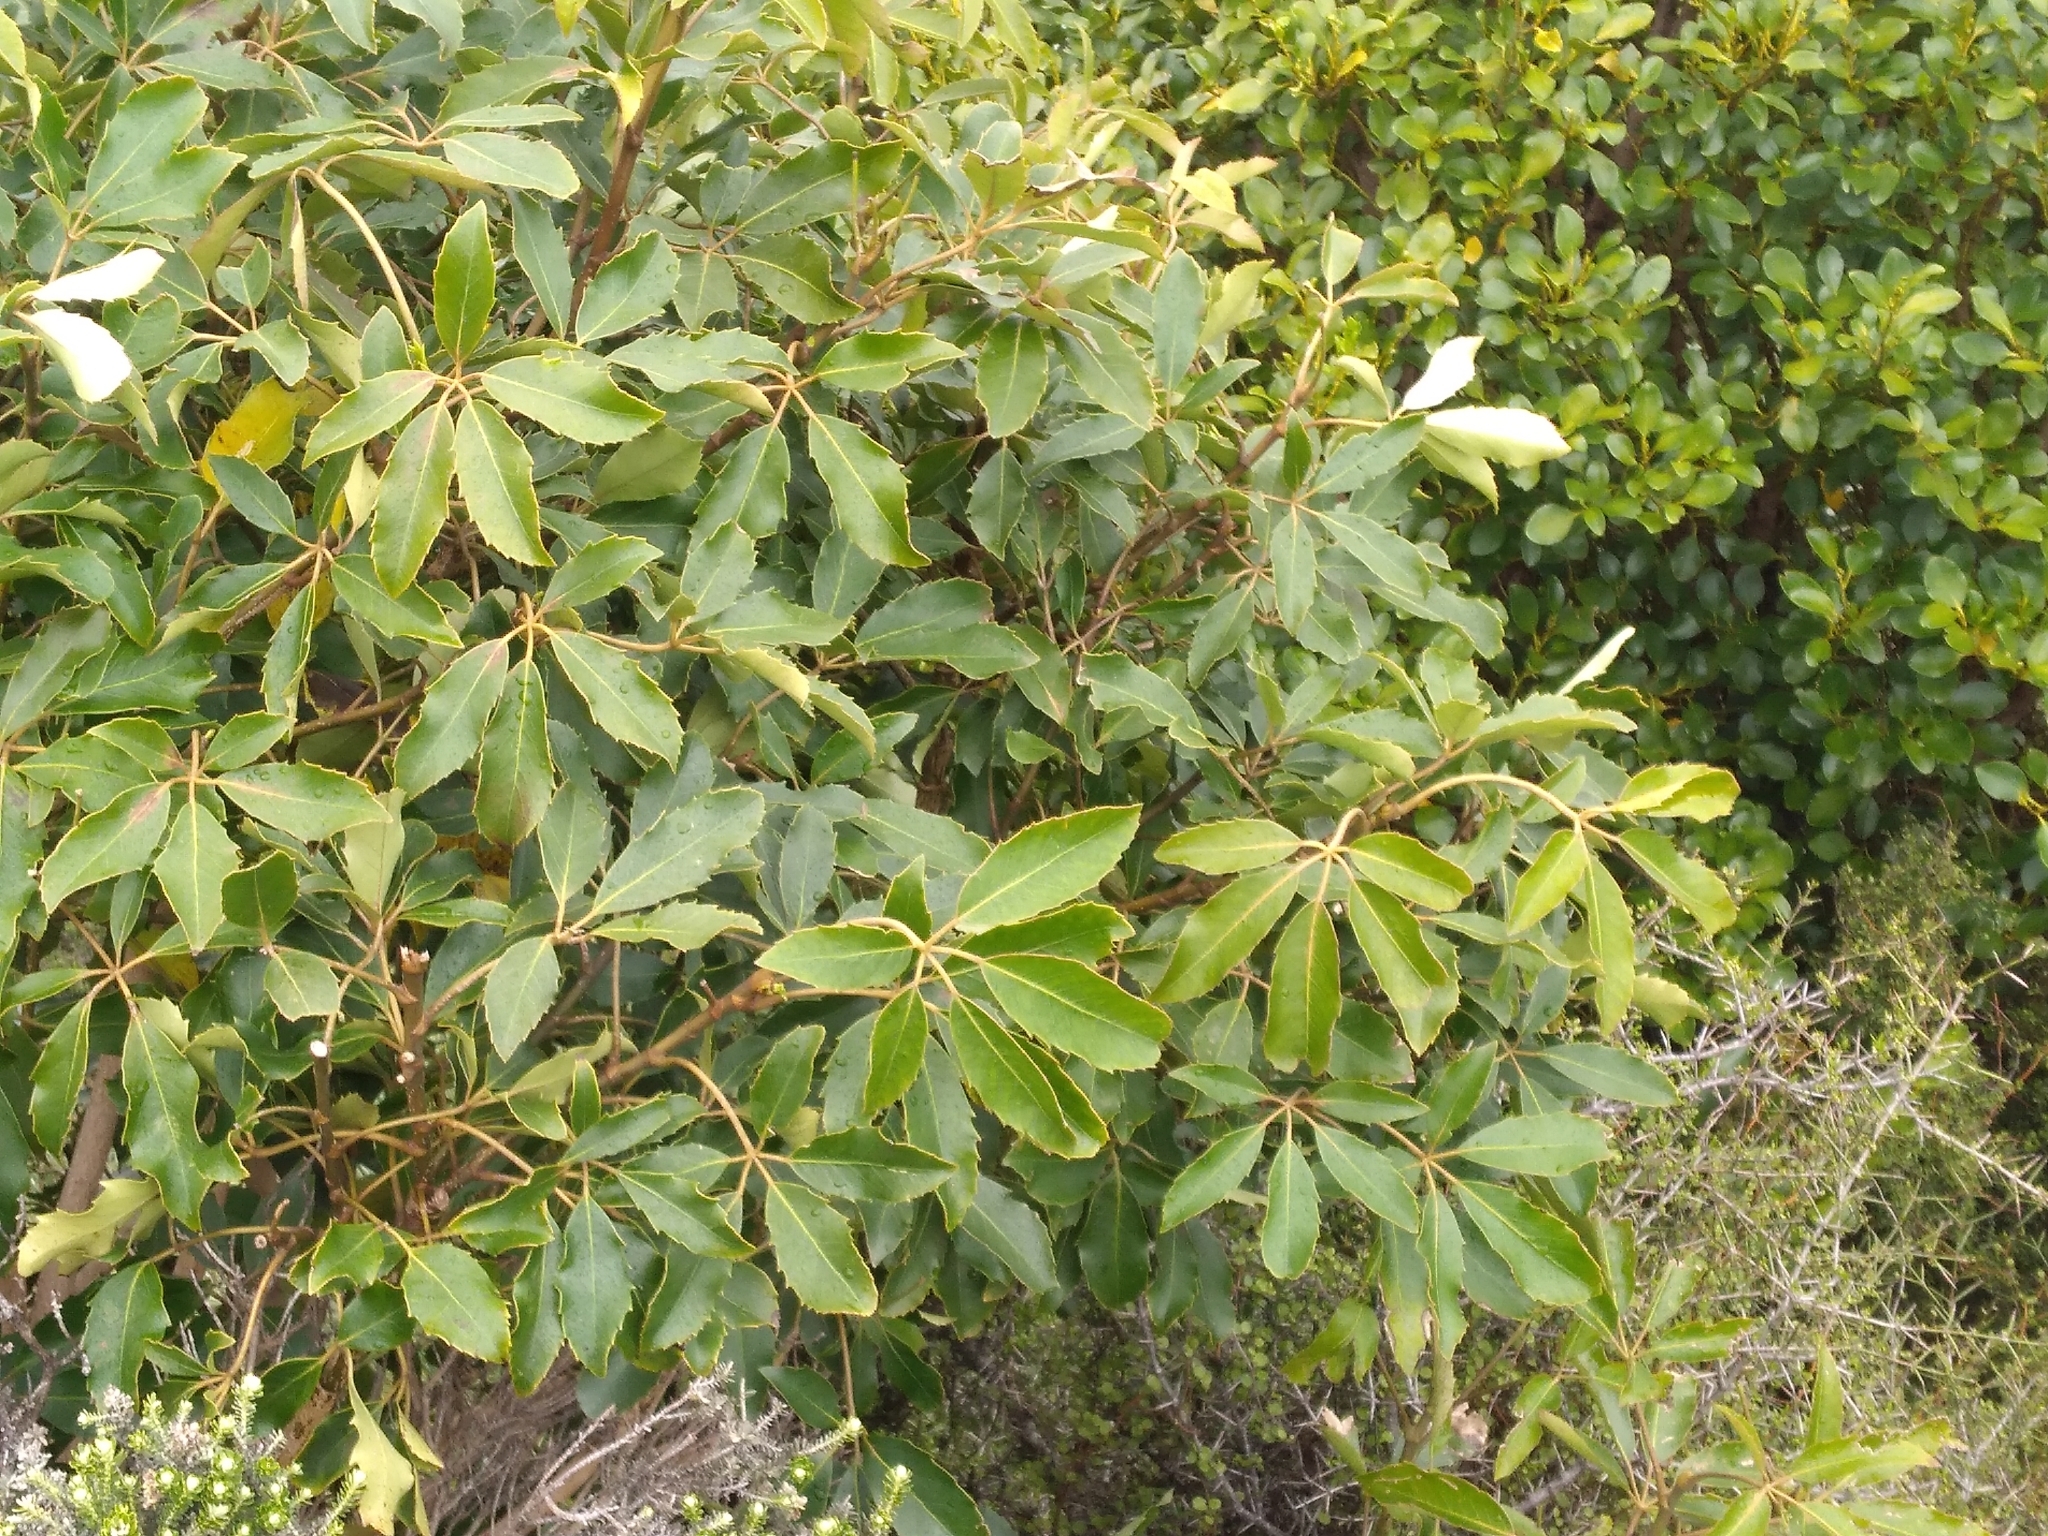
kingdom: Plantae
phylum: Tracheophyta
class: Magnoliopsida
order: Apiales
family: Araliaceae
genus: Neopanax
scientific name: Neopanax arboreus
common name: Five-fingers
